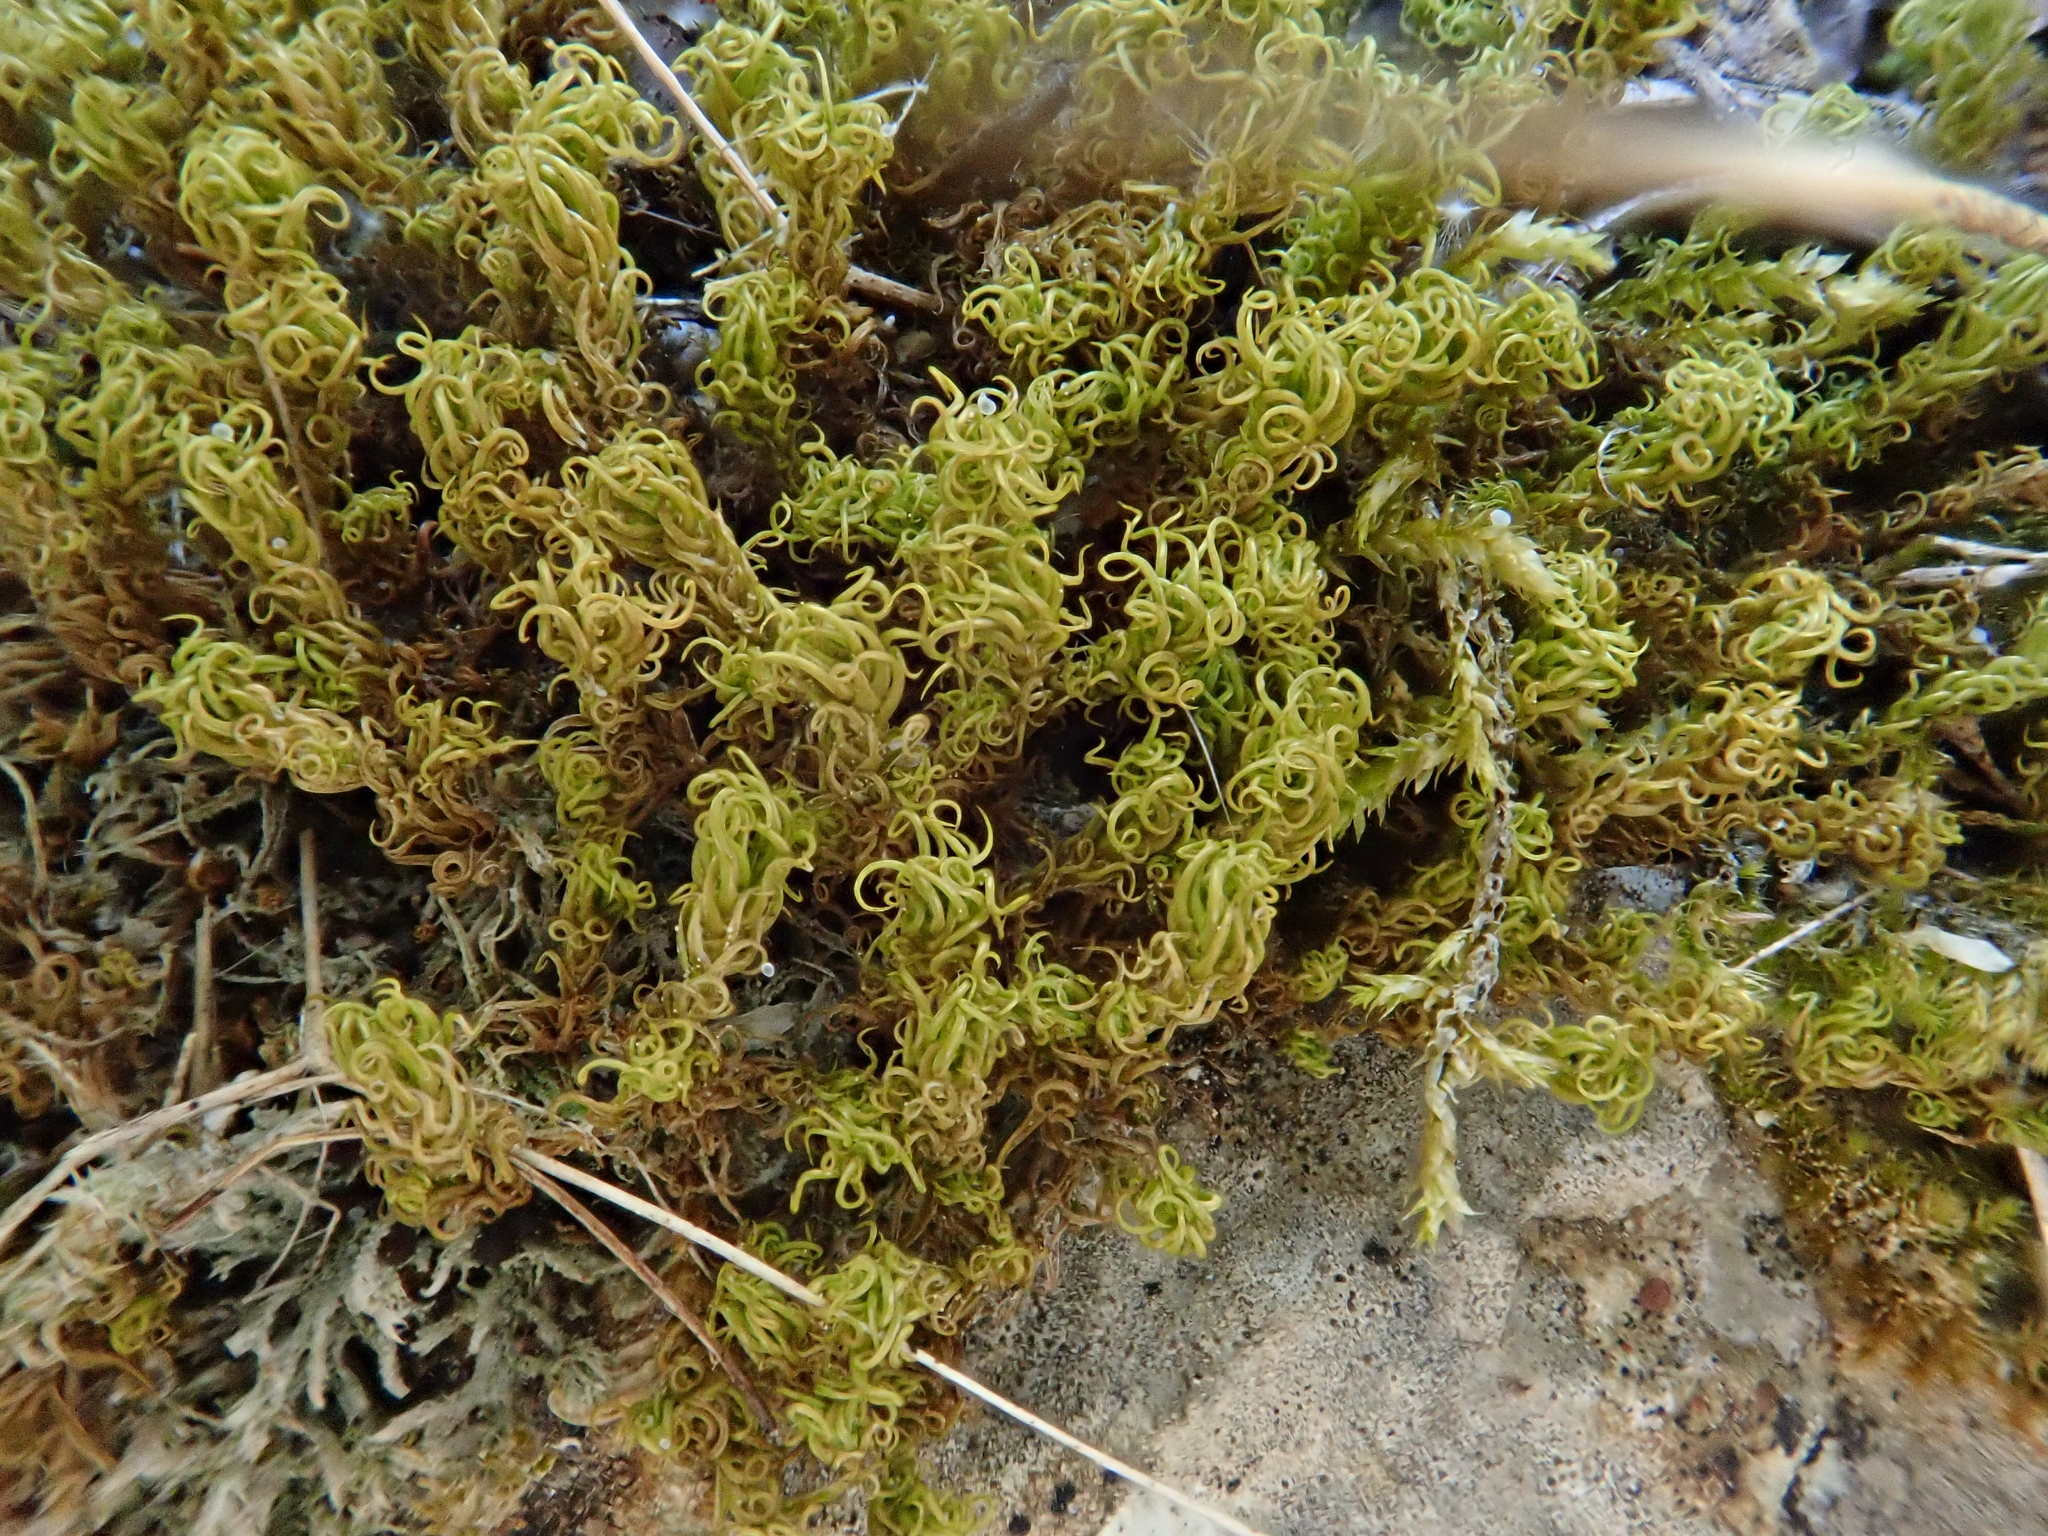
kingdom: Plantae
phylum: Bryophyta
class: Bryopsida
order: Pottiales
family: Pottiaceae
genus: Pleurochaete
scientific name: Pleurochaete squarrosa
